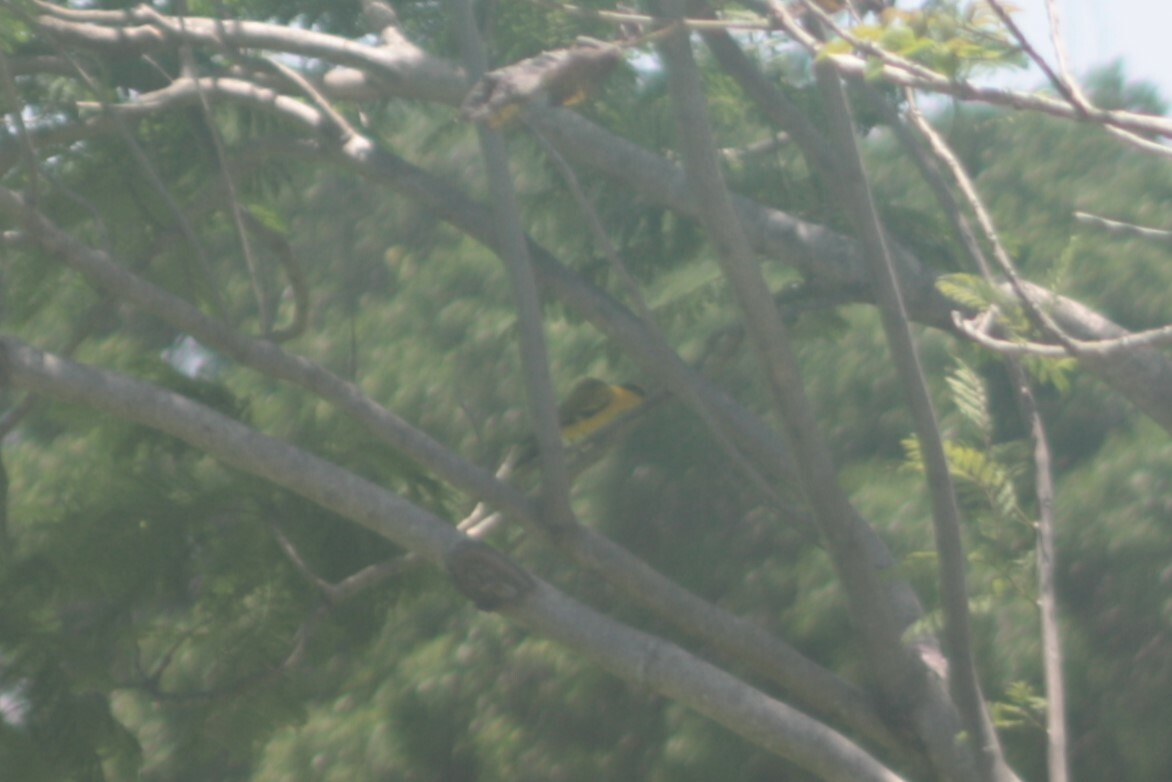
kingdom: Animalia
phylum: Chordata
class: Aves
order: Passeriformes
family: Oriolidae
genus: Oriolus
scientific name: Oriolus chinensis
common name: Black-naped oriole
